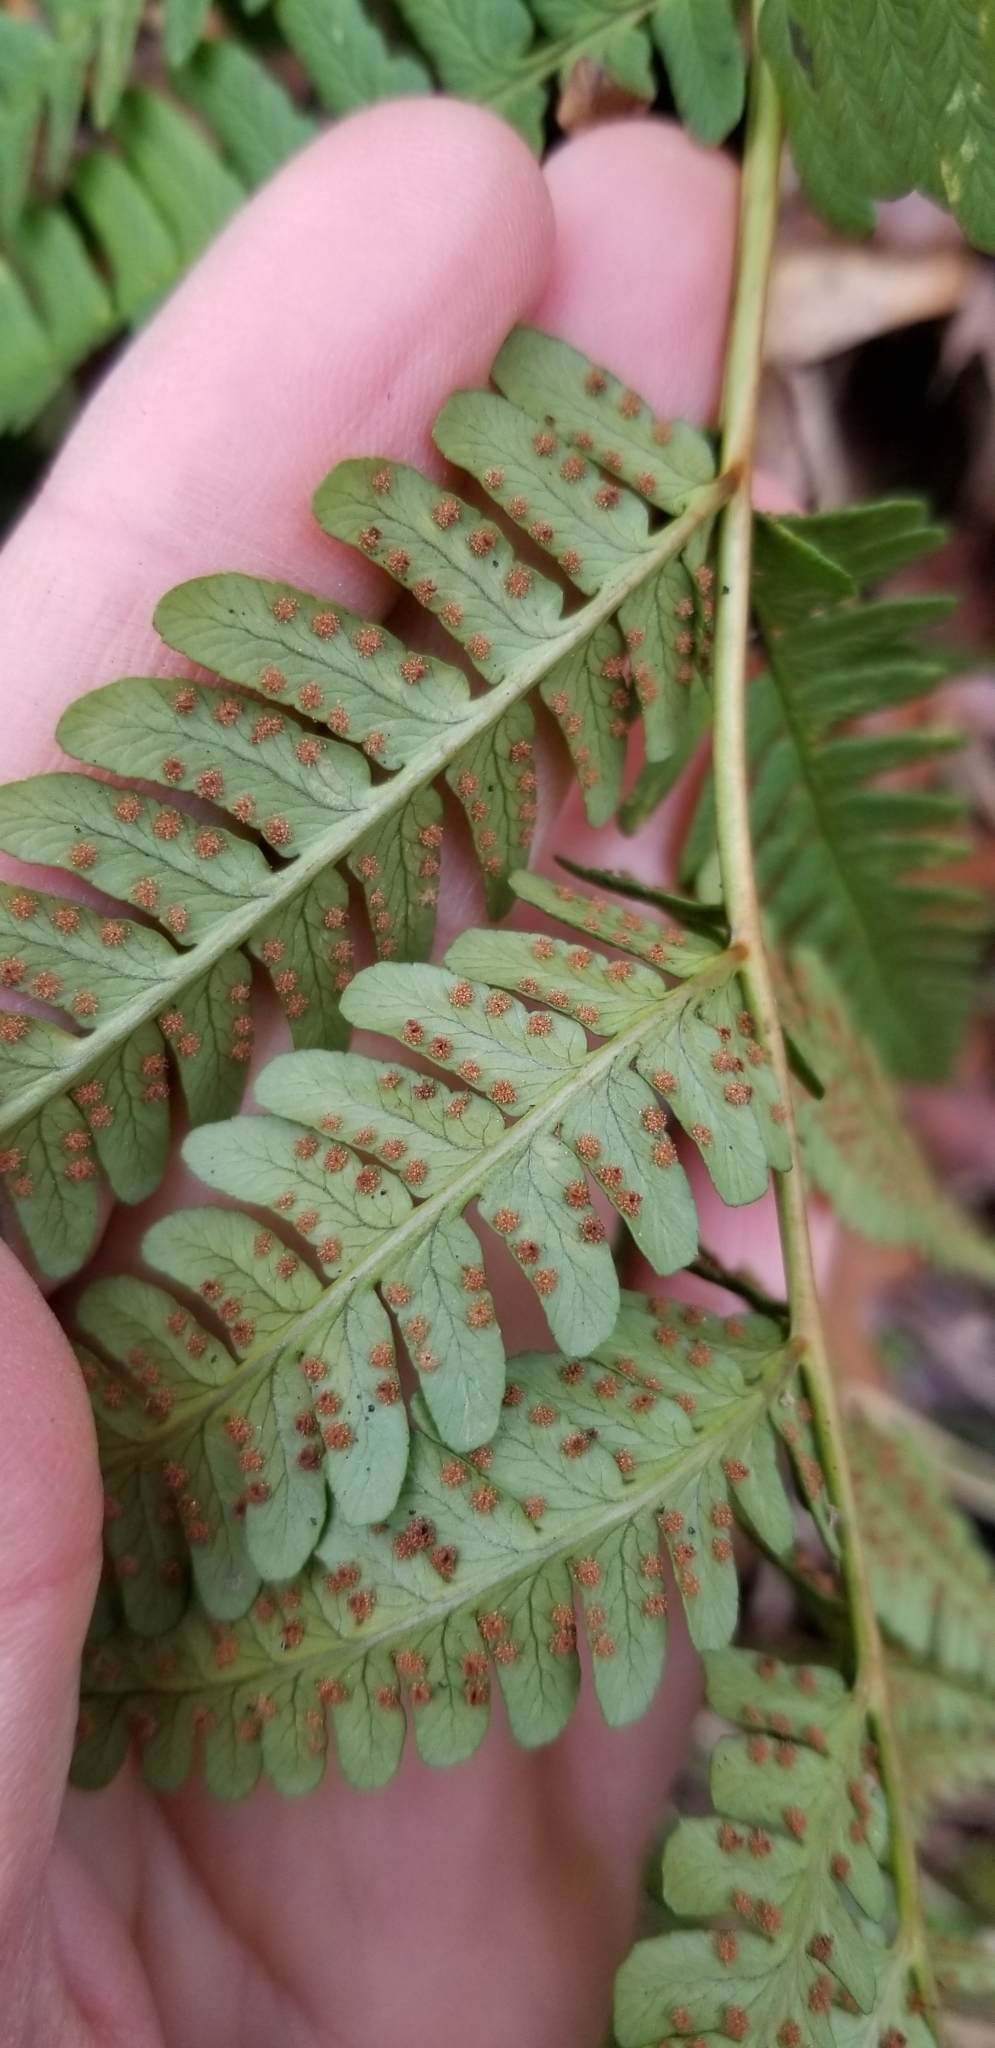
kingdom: Plantae
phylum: Tracheophyta
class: Polypodiopsida
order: Polypodiales
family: Dryopteridaceae
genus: Dryopteris
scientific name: Dryopteris marginalis
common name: Marginal wood fern
